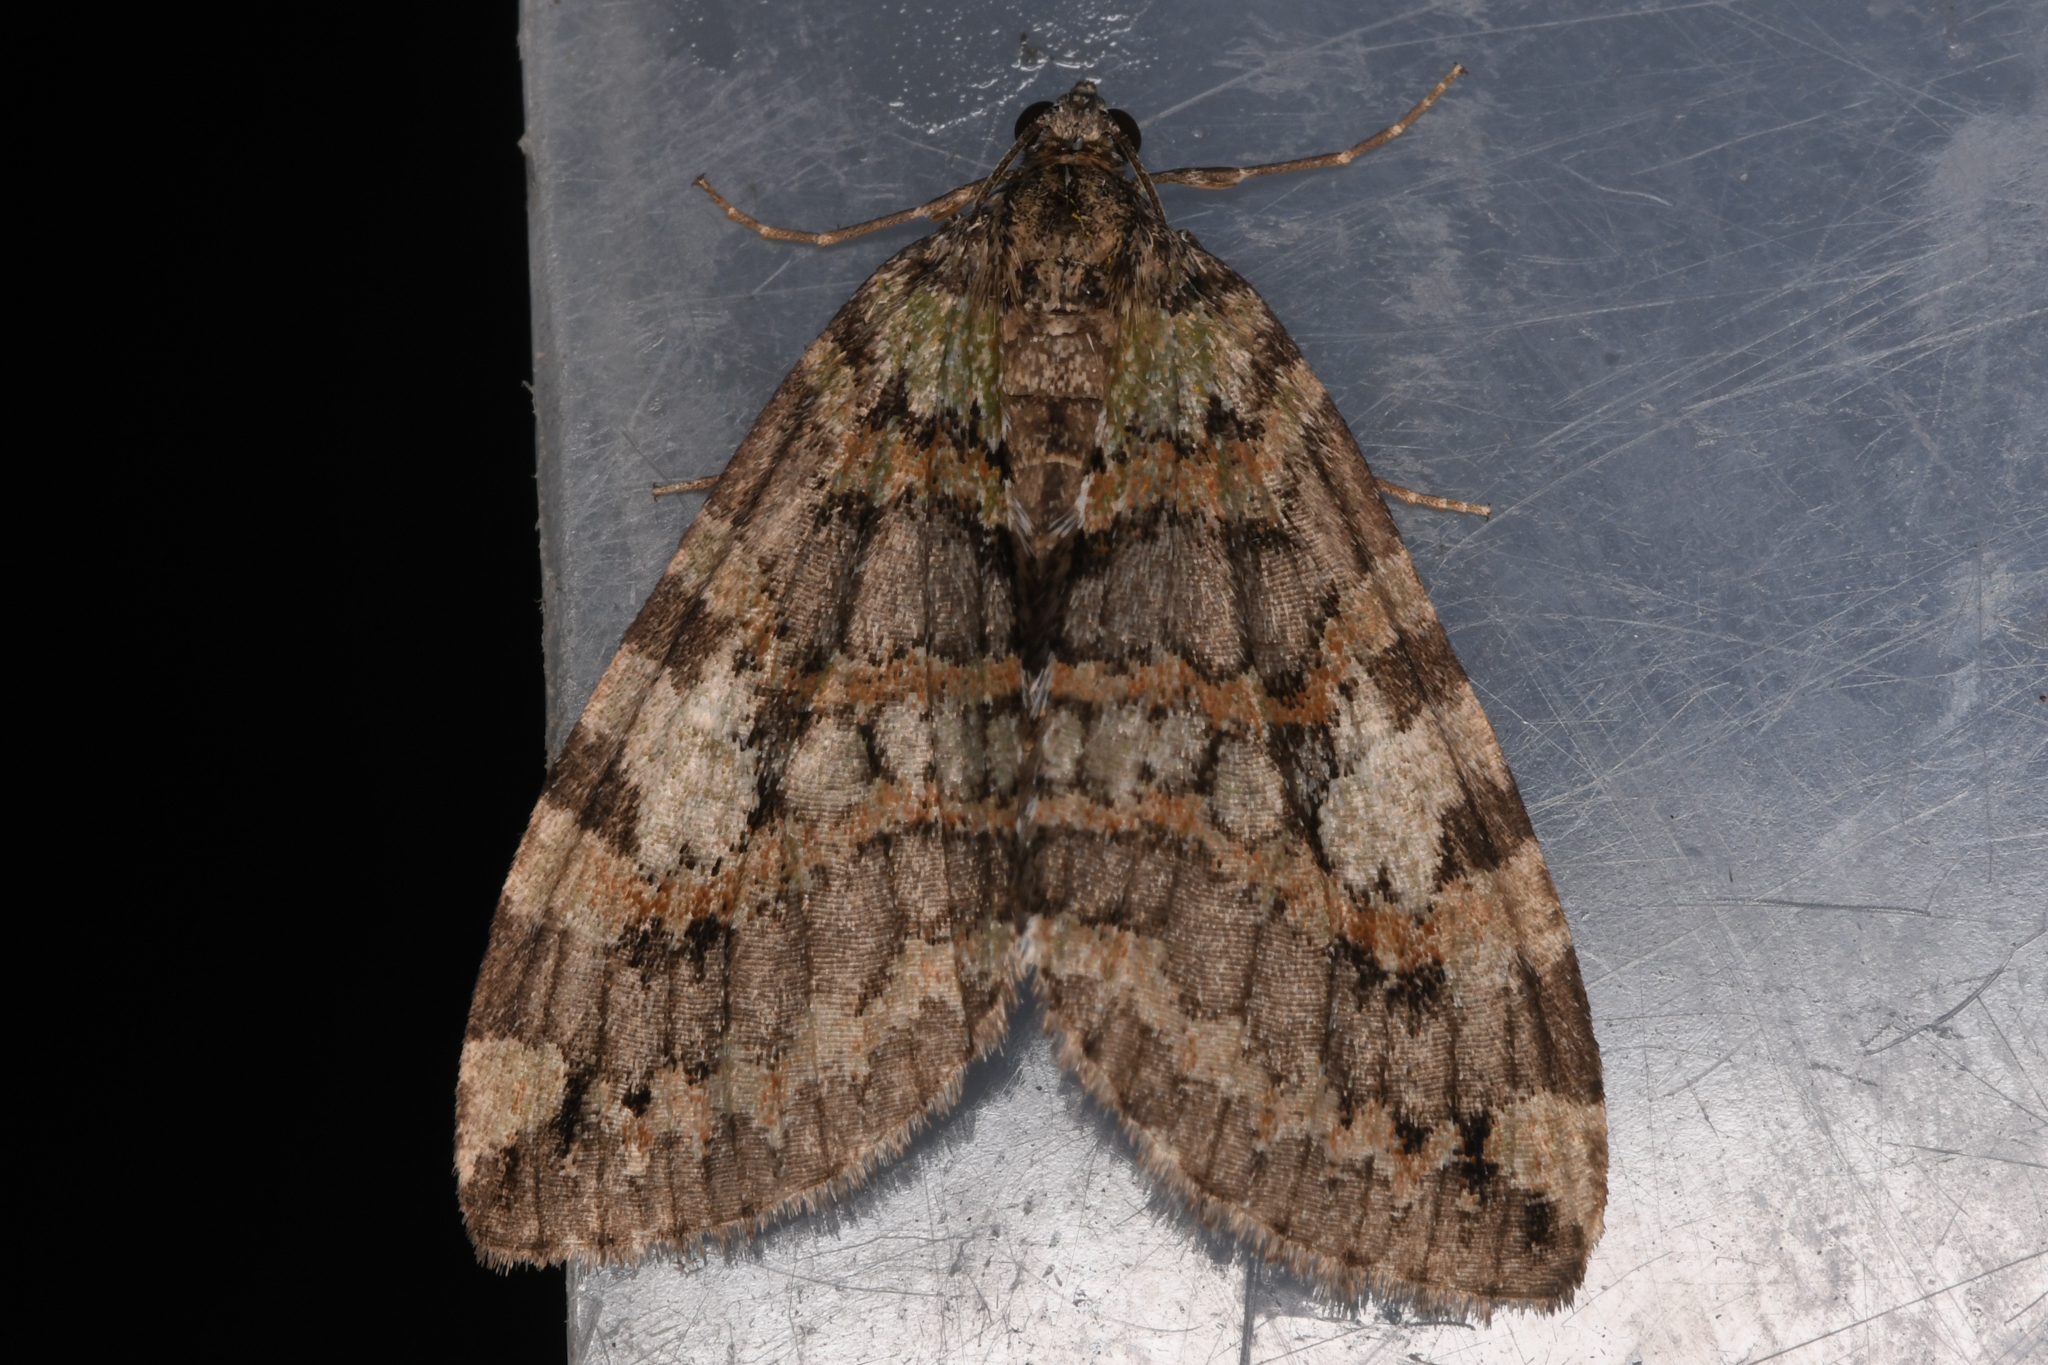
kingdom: Animalia
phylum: Arthropoda
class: Insecta
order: Lepidoptera
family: Geometridae
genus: Hydriomena
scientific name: Hydriomena nubilofasciata
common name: Oak winter highflier moth
